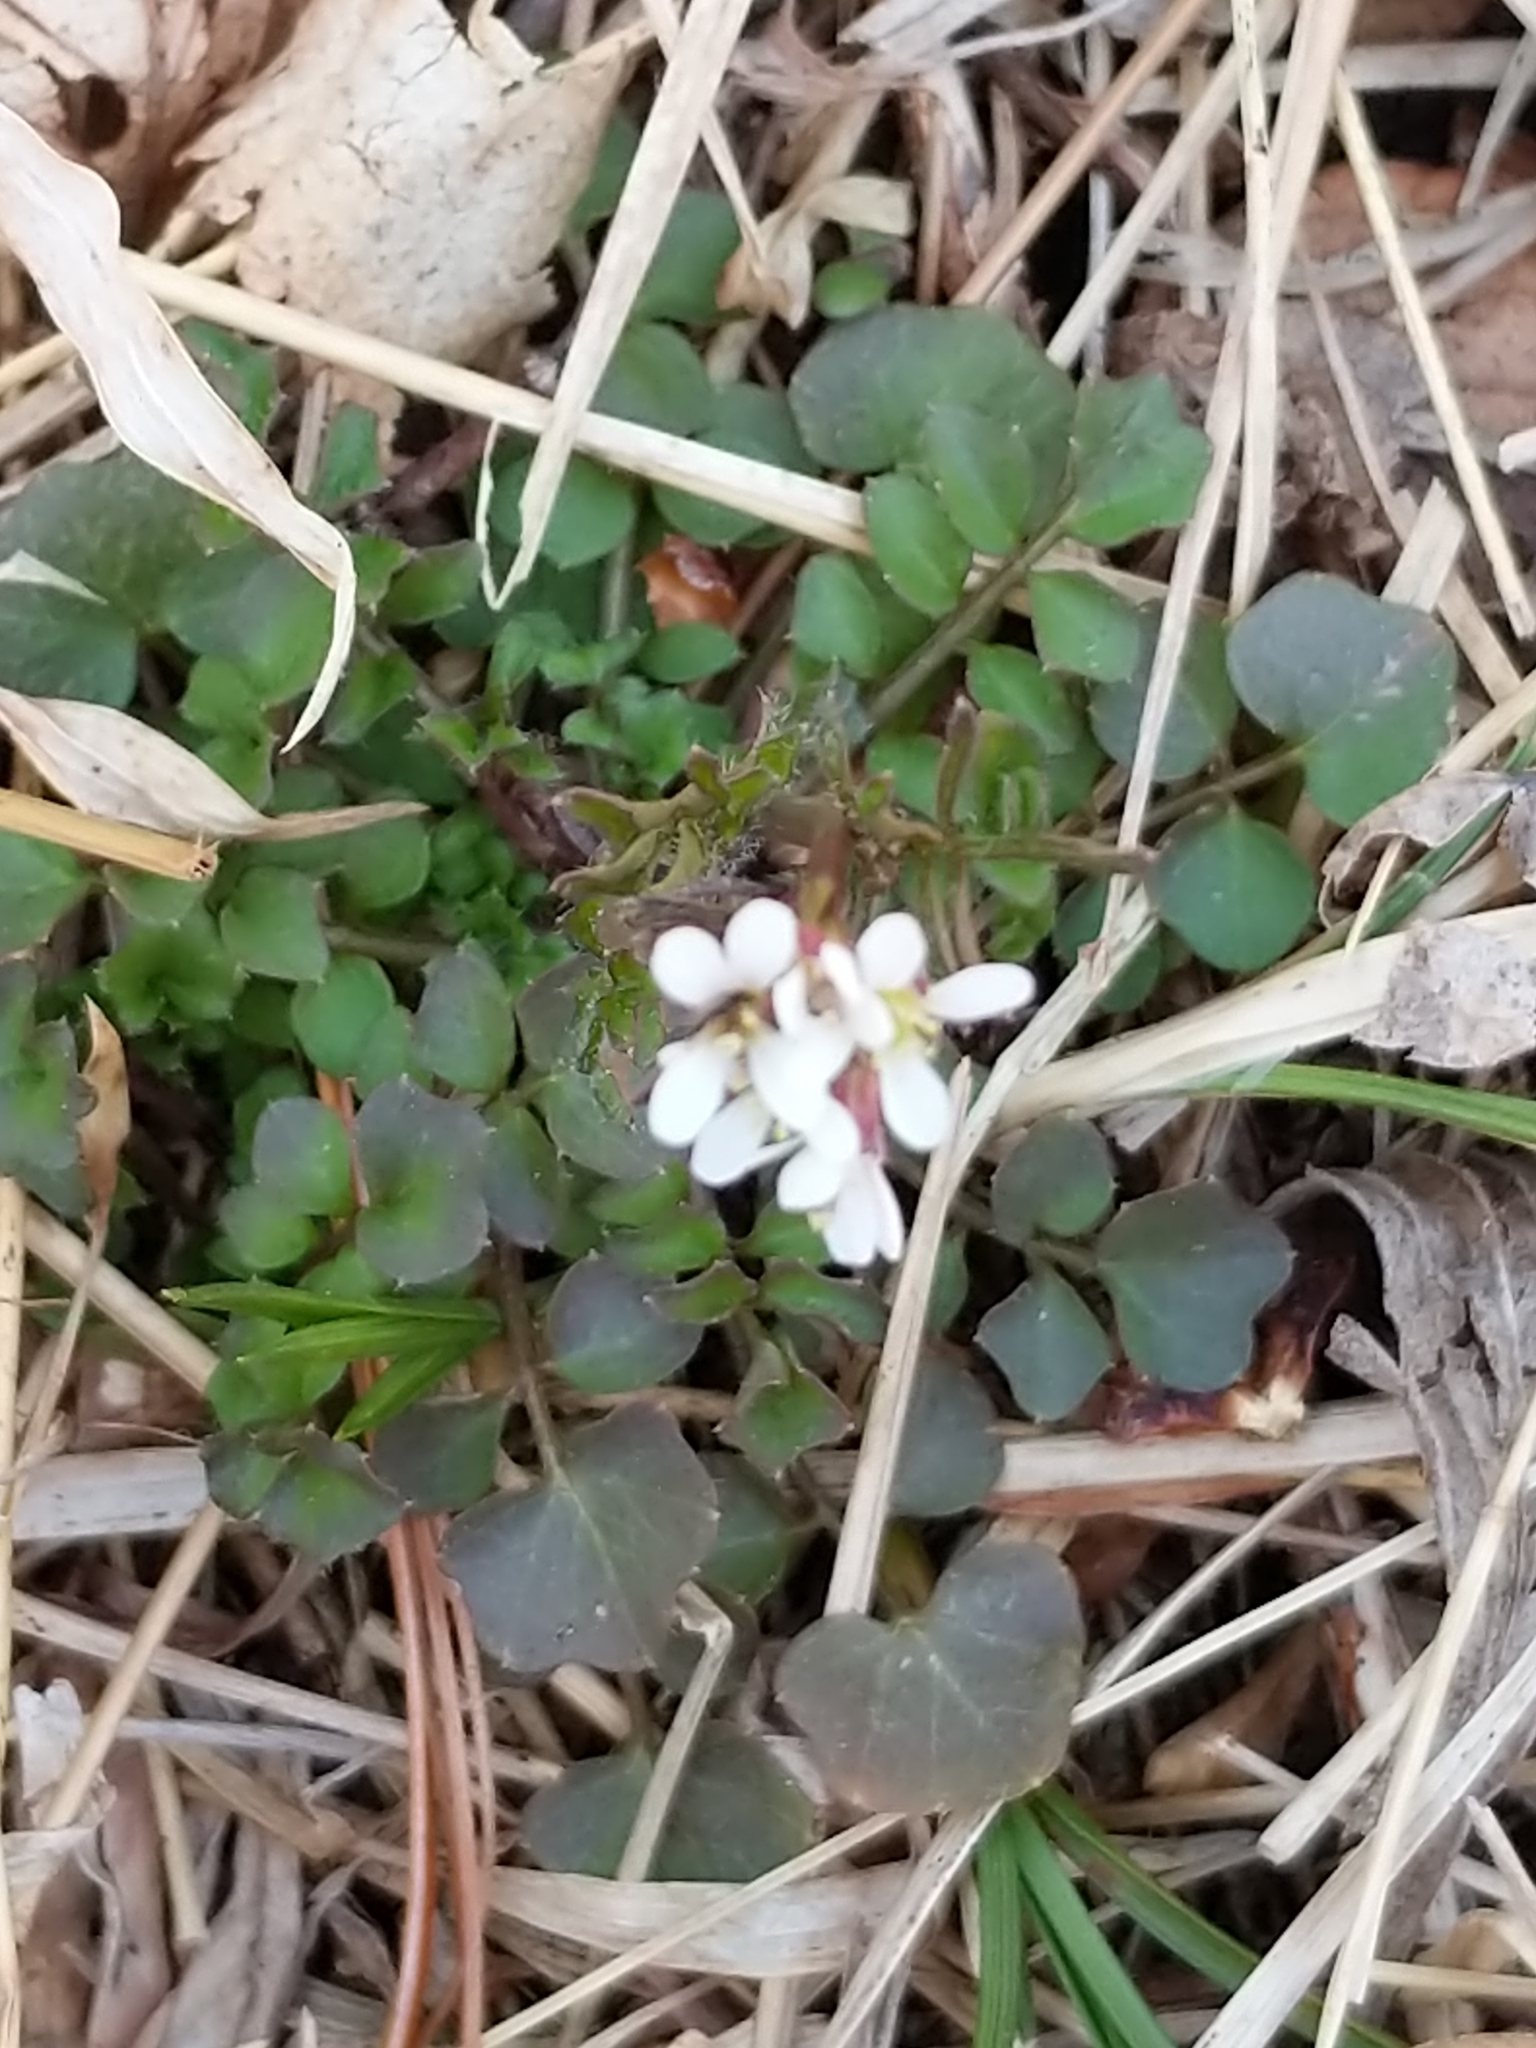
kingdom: Plantae
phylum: Tracheophyta
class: Magnoliopsida
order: Brassicales
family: Brassicaceae
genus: Cardamine
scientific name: Cardamine hirsuta
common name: Hairy bittercress
